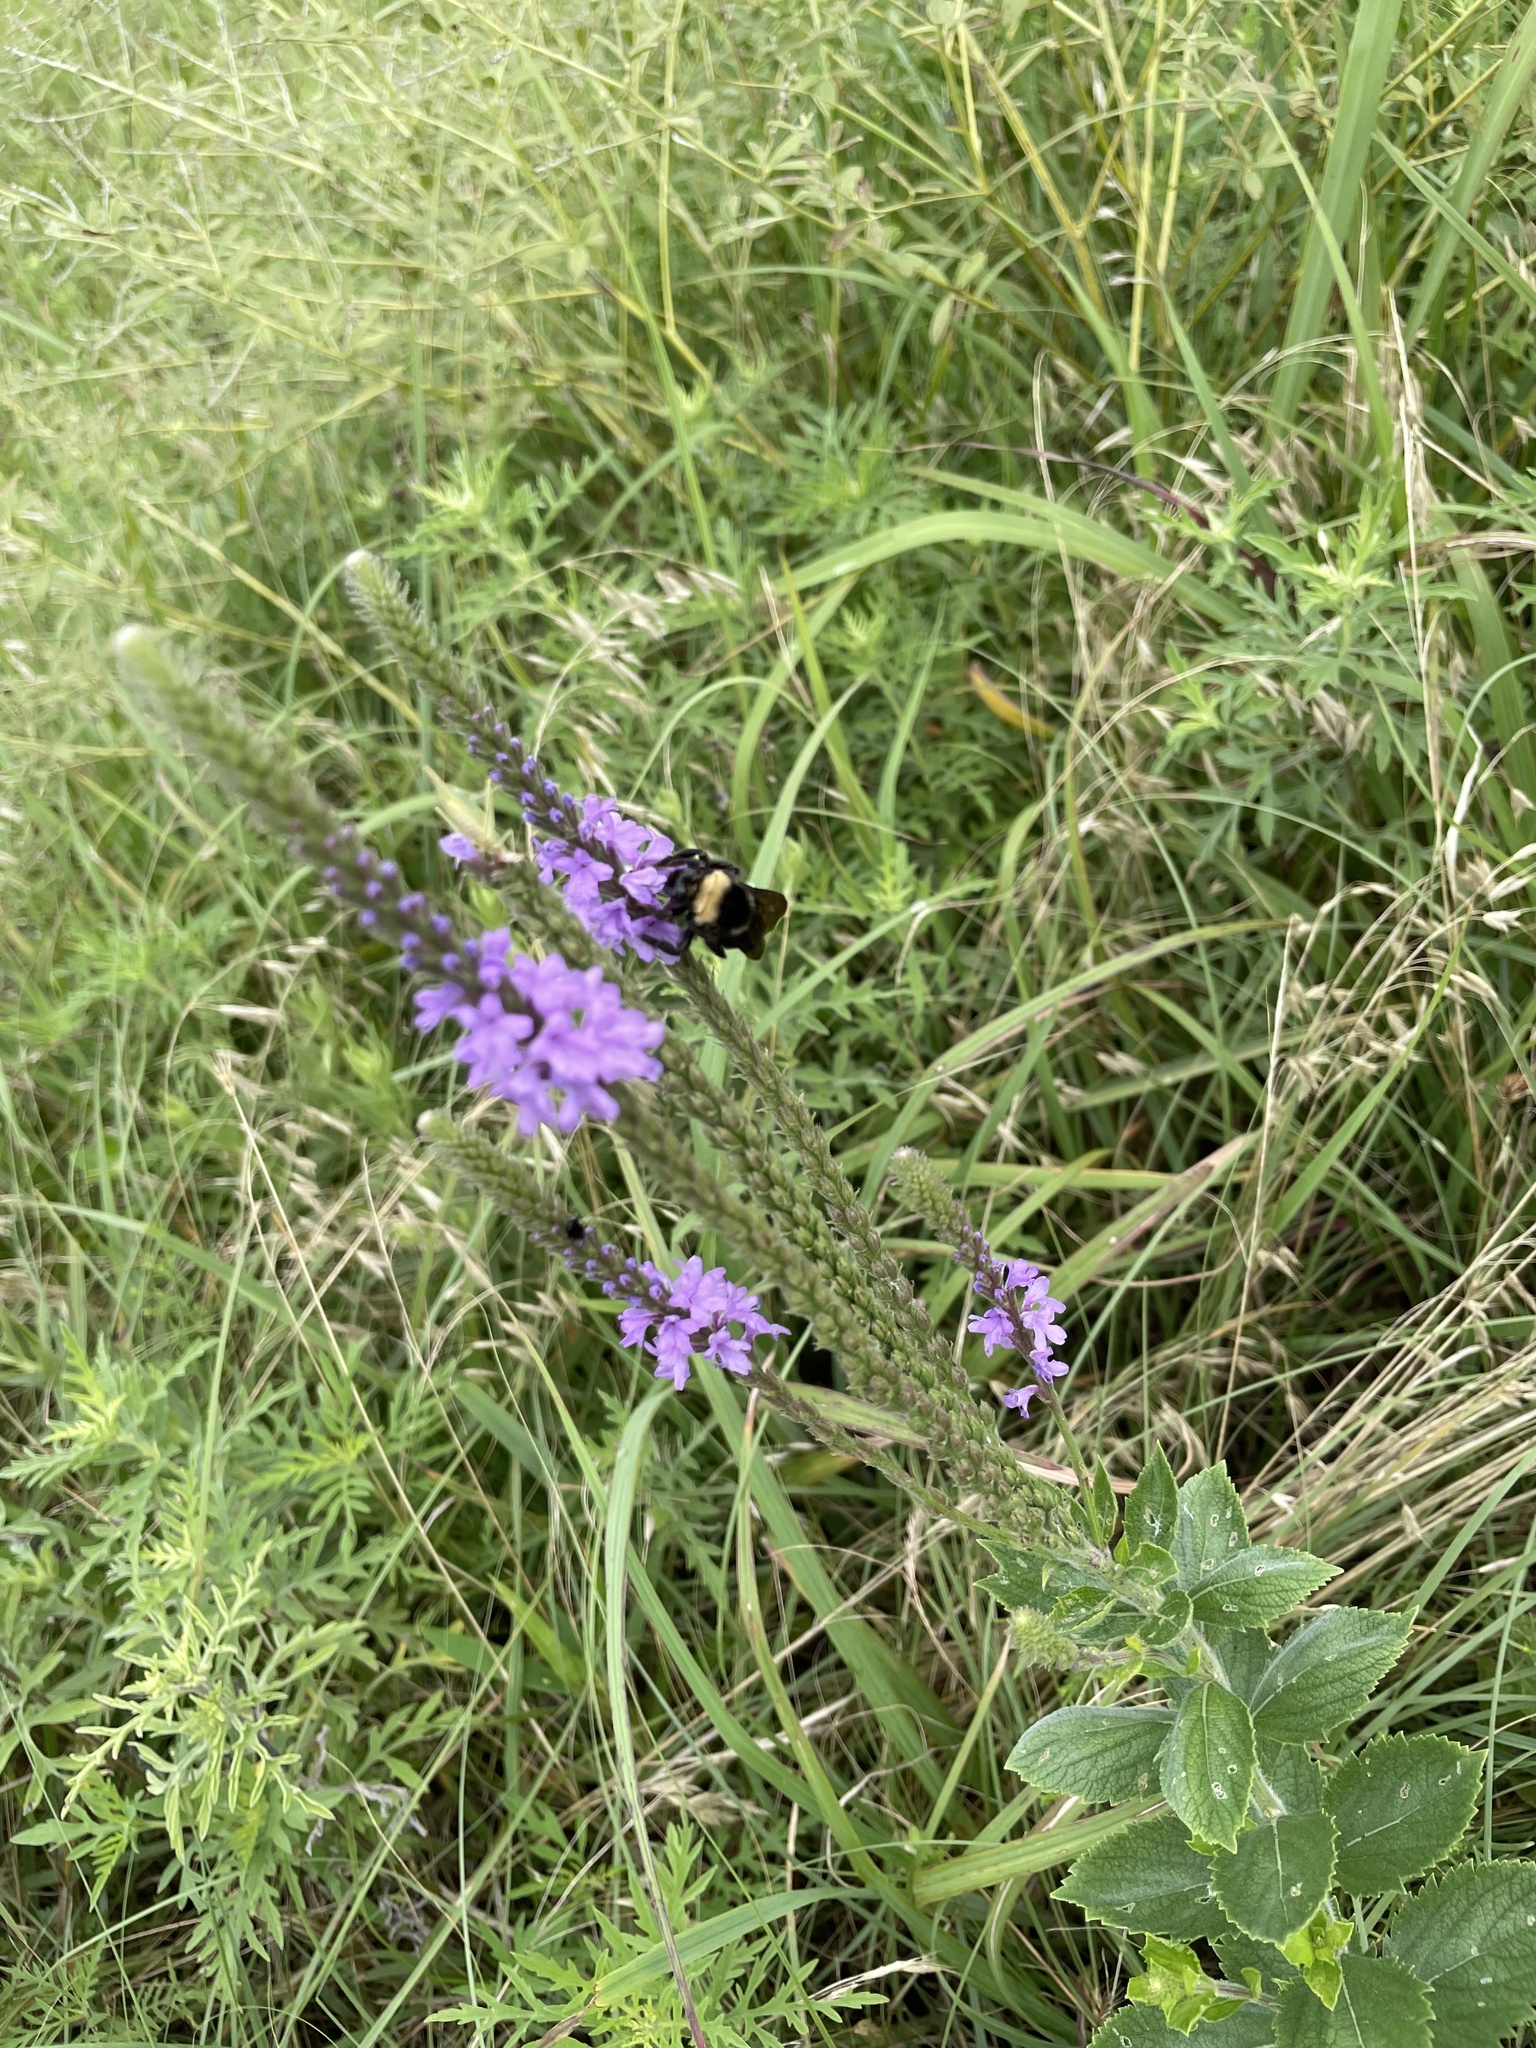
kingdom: Animalia
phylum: Arthropoda
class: Insecta
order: Hymenoptera
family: Apidae
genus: Bombus
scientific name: Bombus auricomus
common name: Black and gold bumble bee
